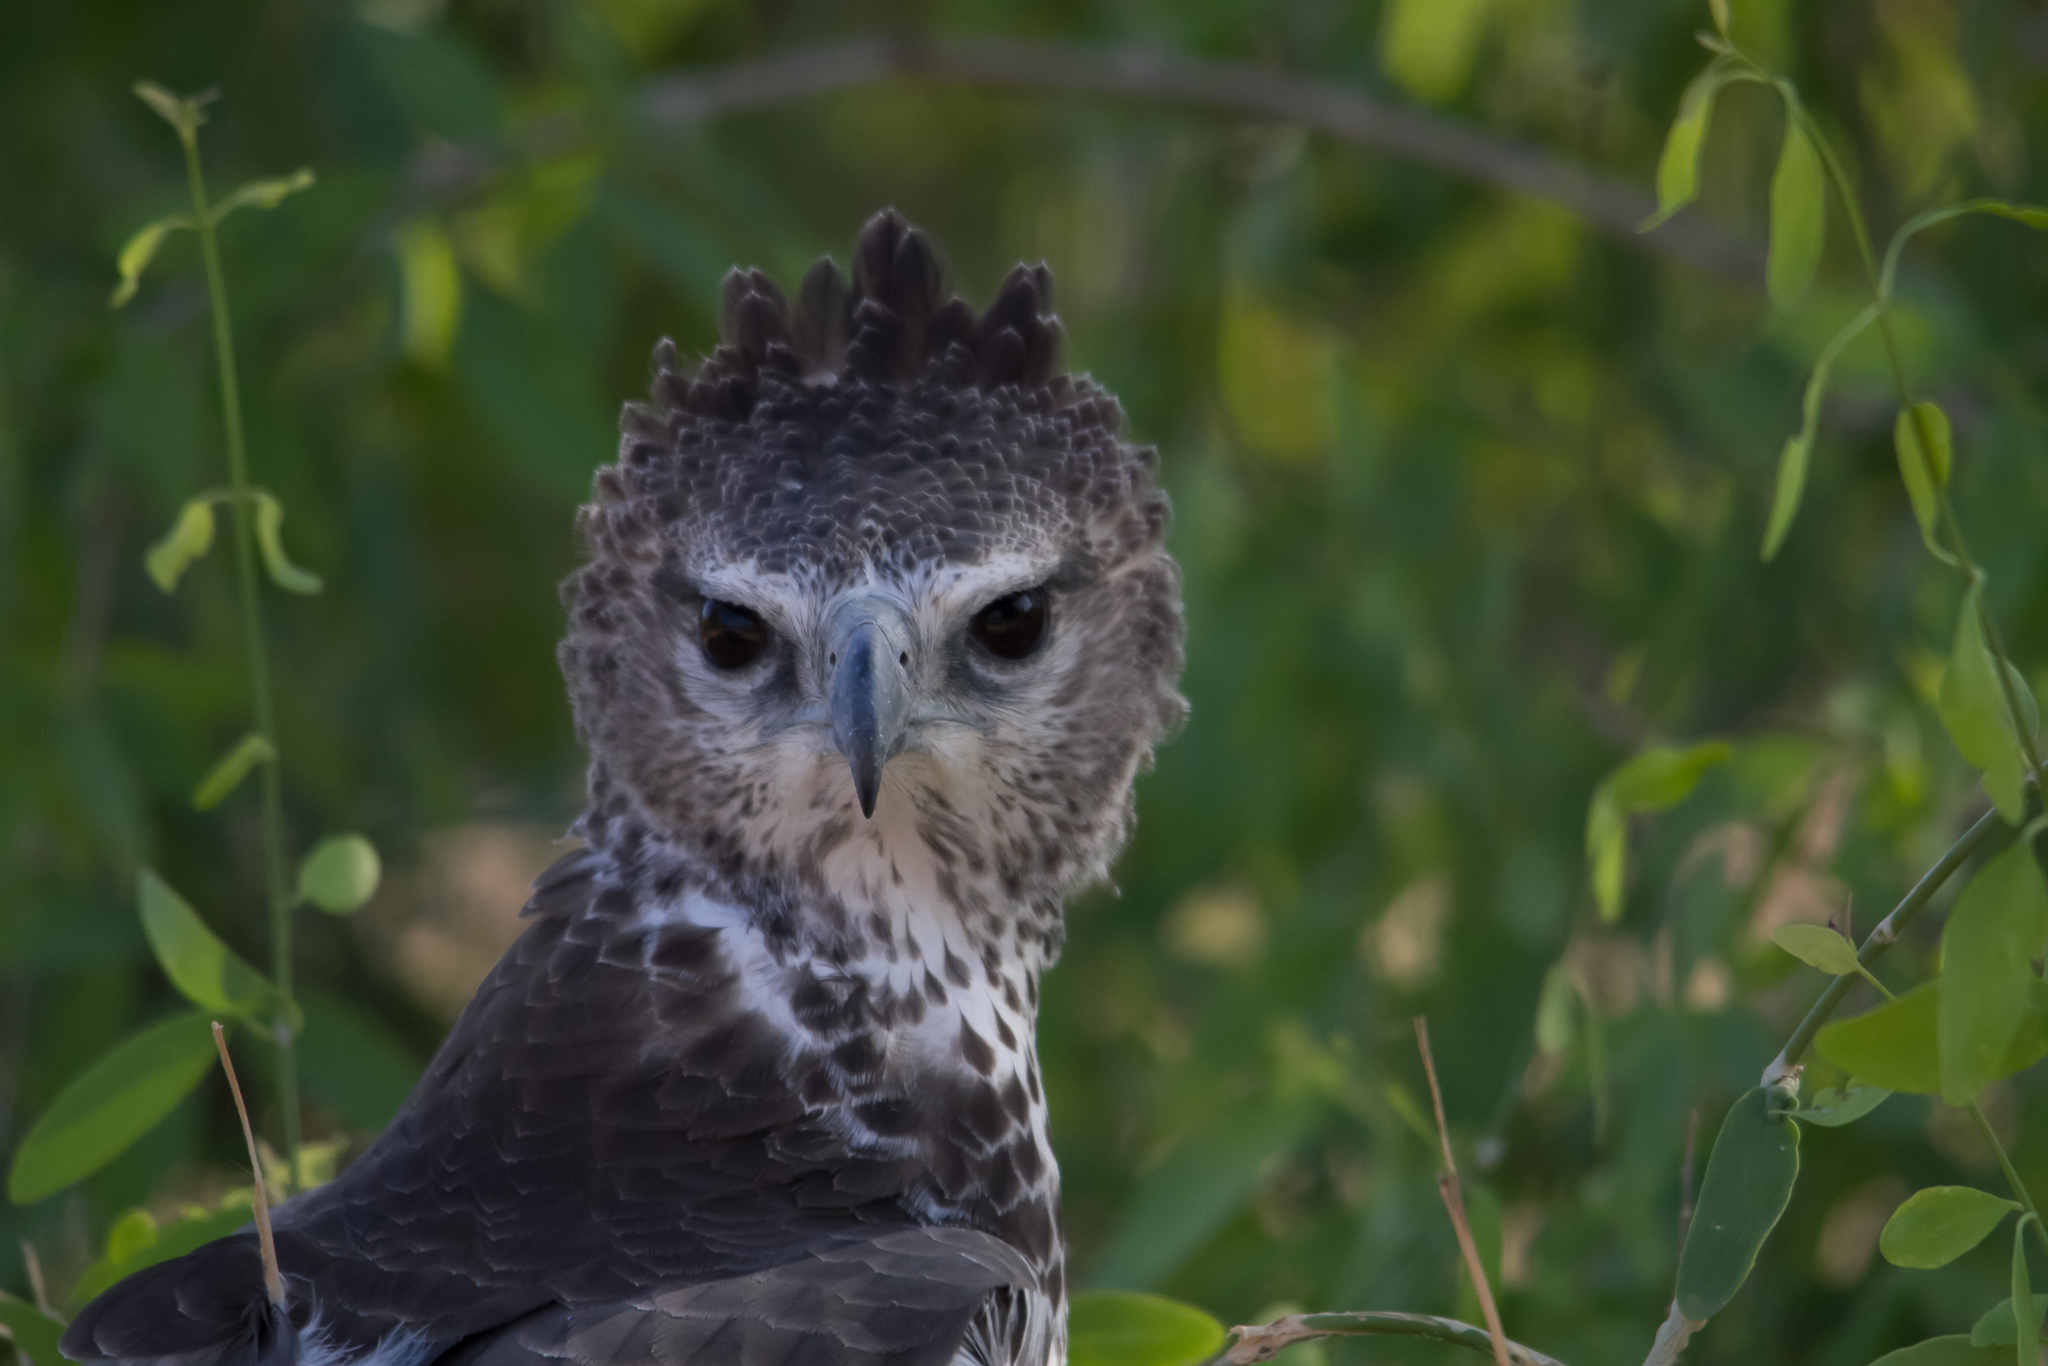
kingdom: Animalia
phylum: Chordata
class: Aves
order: Accipitriformes
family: Accipitridae
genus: Polemaetus
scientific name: Polemaetus bellicosus
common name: Martial eagle
